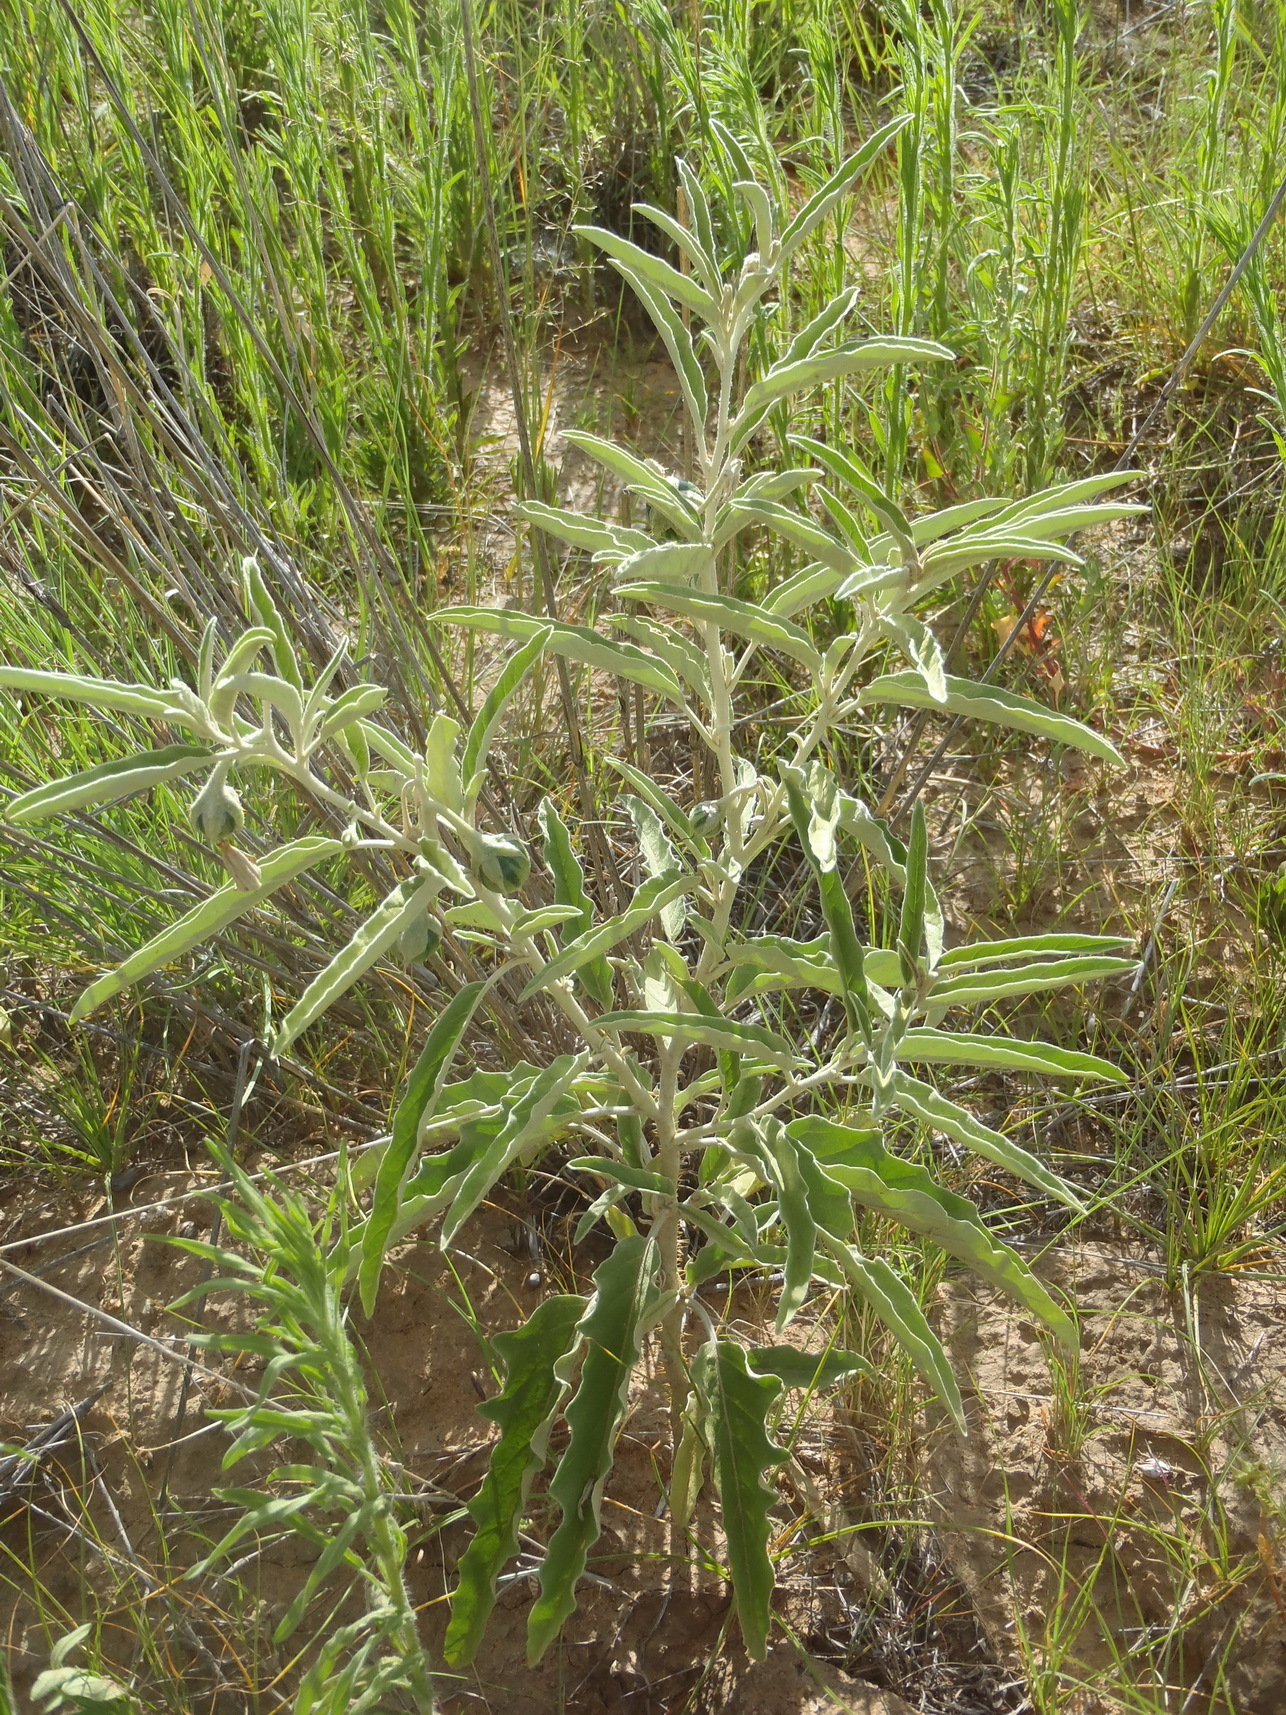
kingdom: Plantae
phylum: Tracheophyta
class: Magnoliopsida
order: Solanales
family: Solanaceae
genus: Solanum
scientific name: Solanum elaeagnifolium
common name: Silverleaf nightshade
